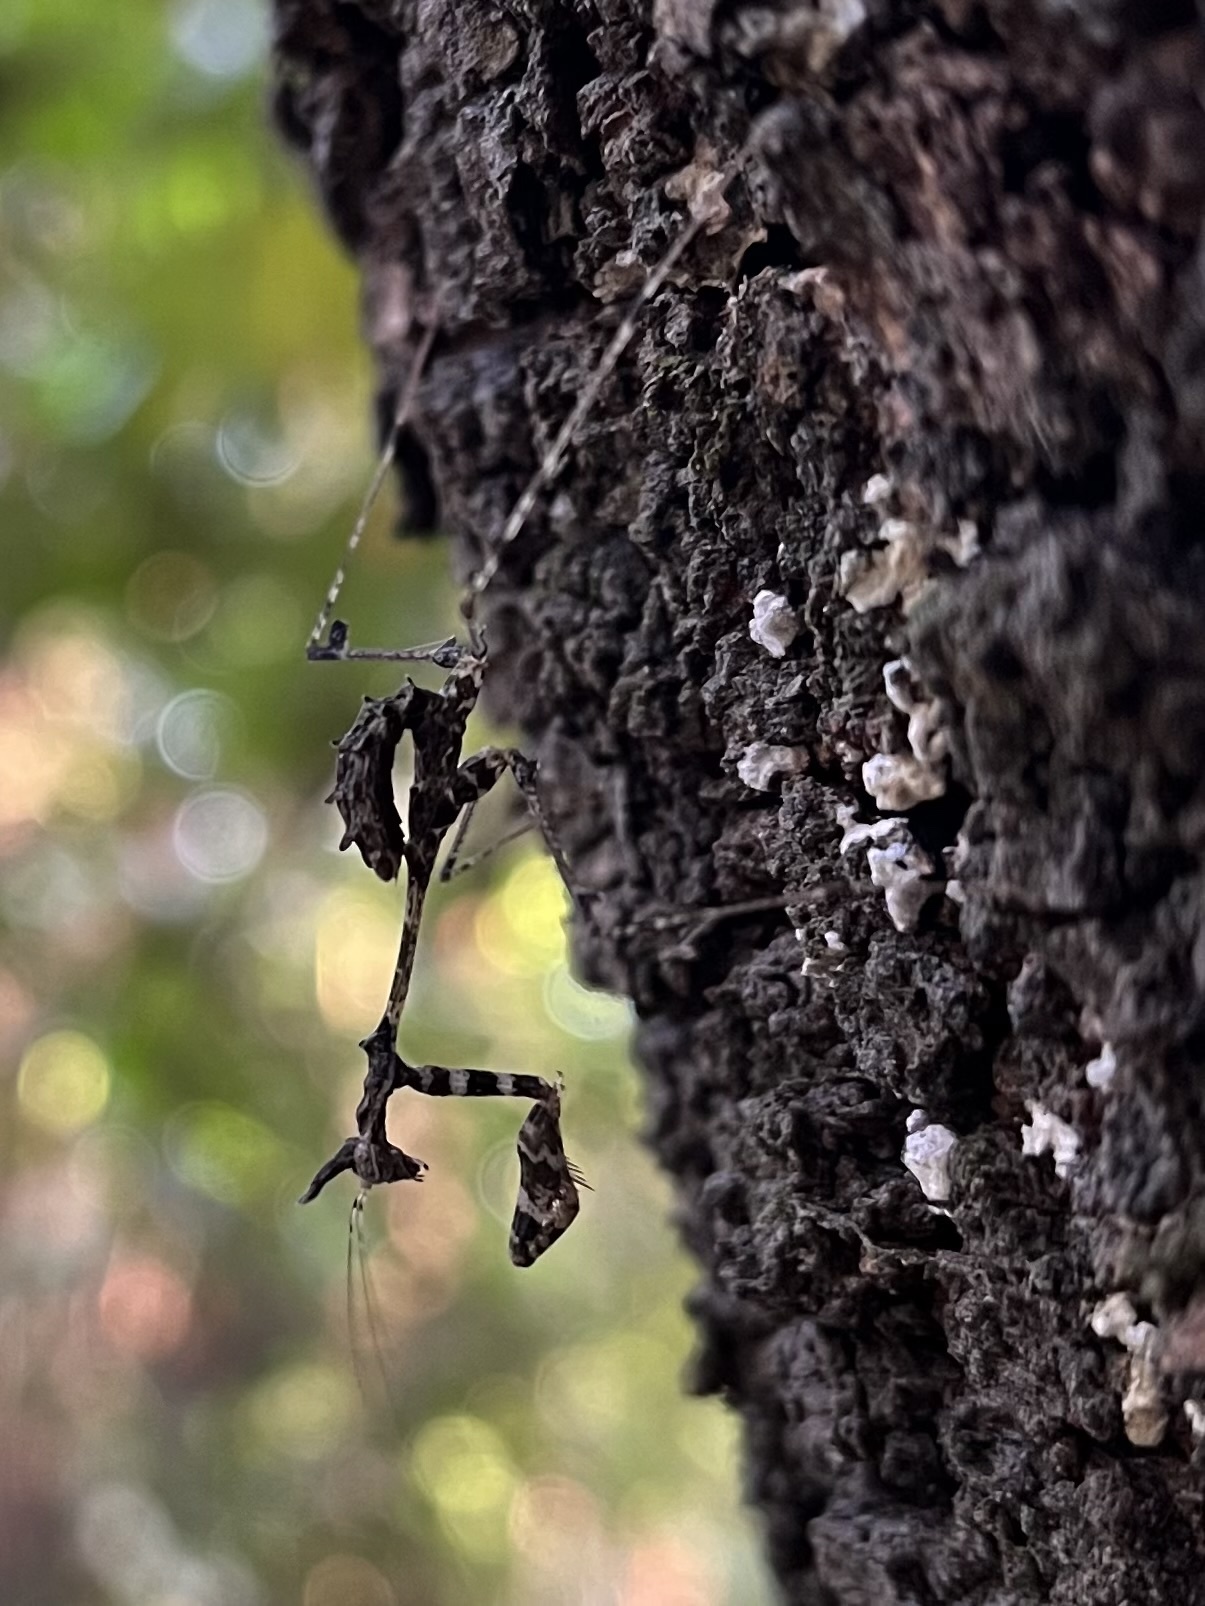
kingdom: Animalia
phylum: Arthropoda
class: Insecta
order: Mantodea
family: Hymenopodidae
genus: Sibylla
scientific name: Sibylla pretiosa
